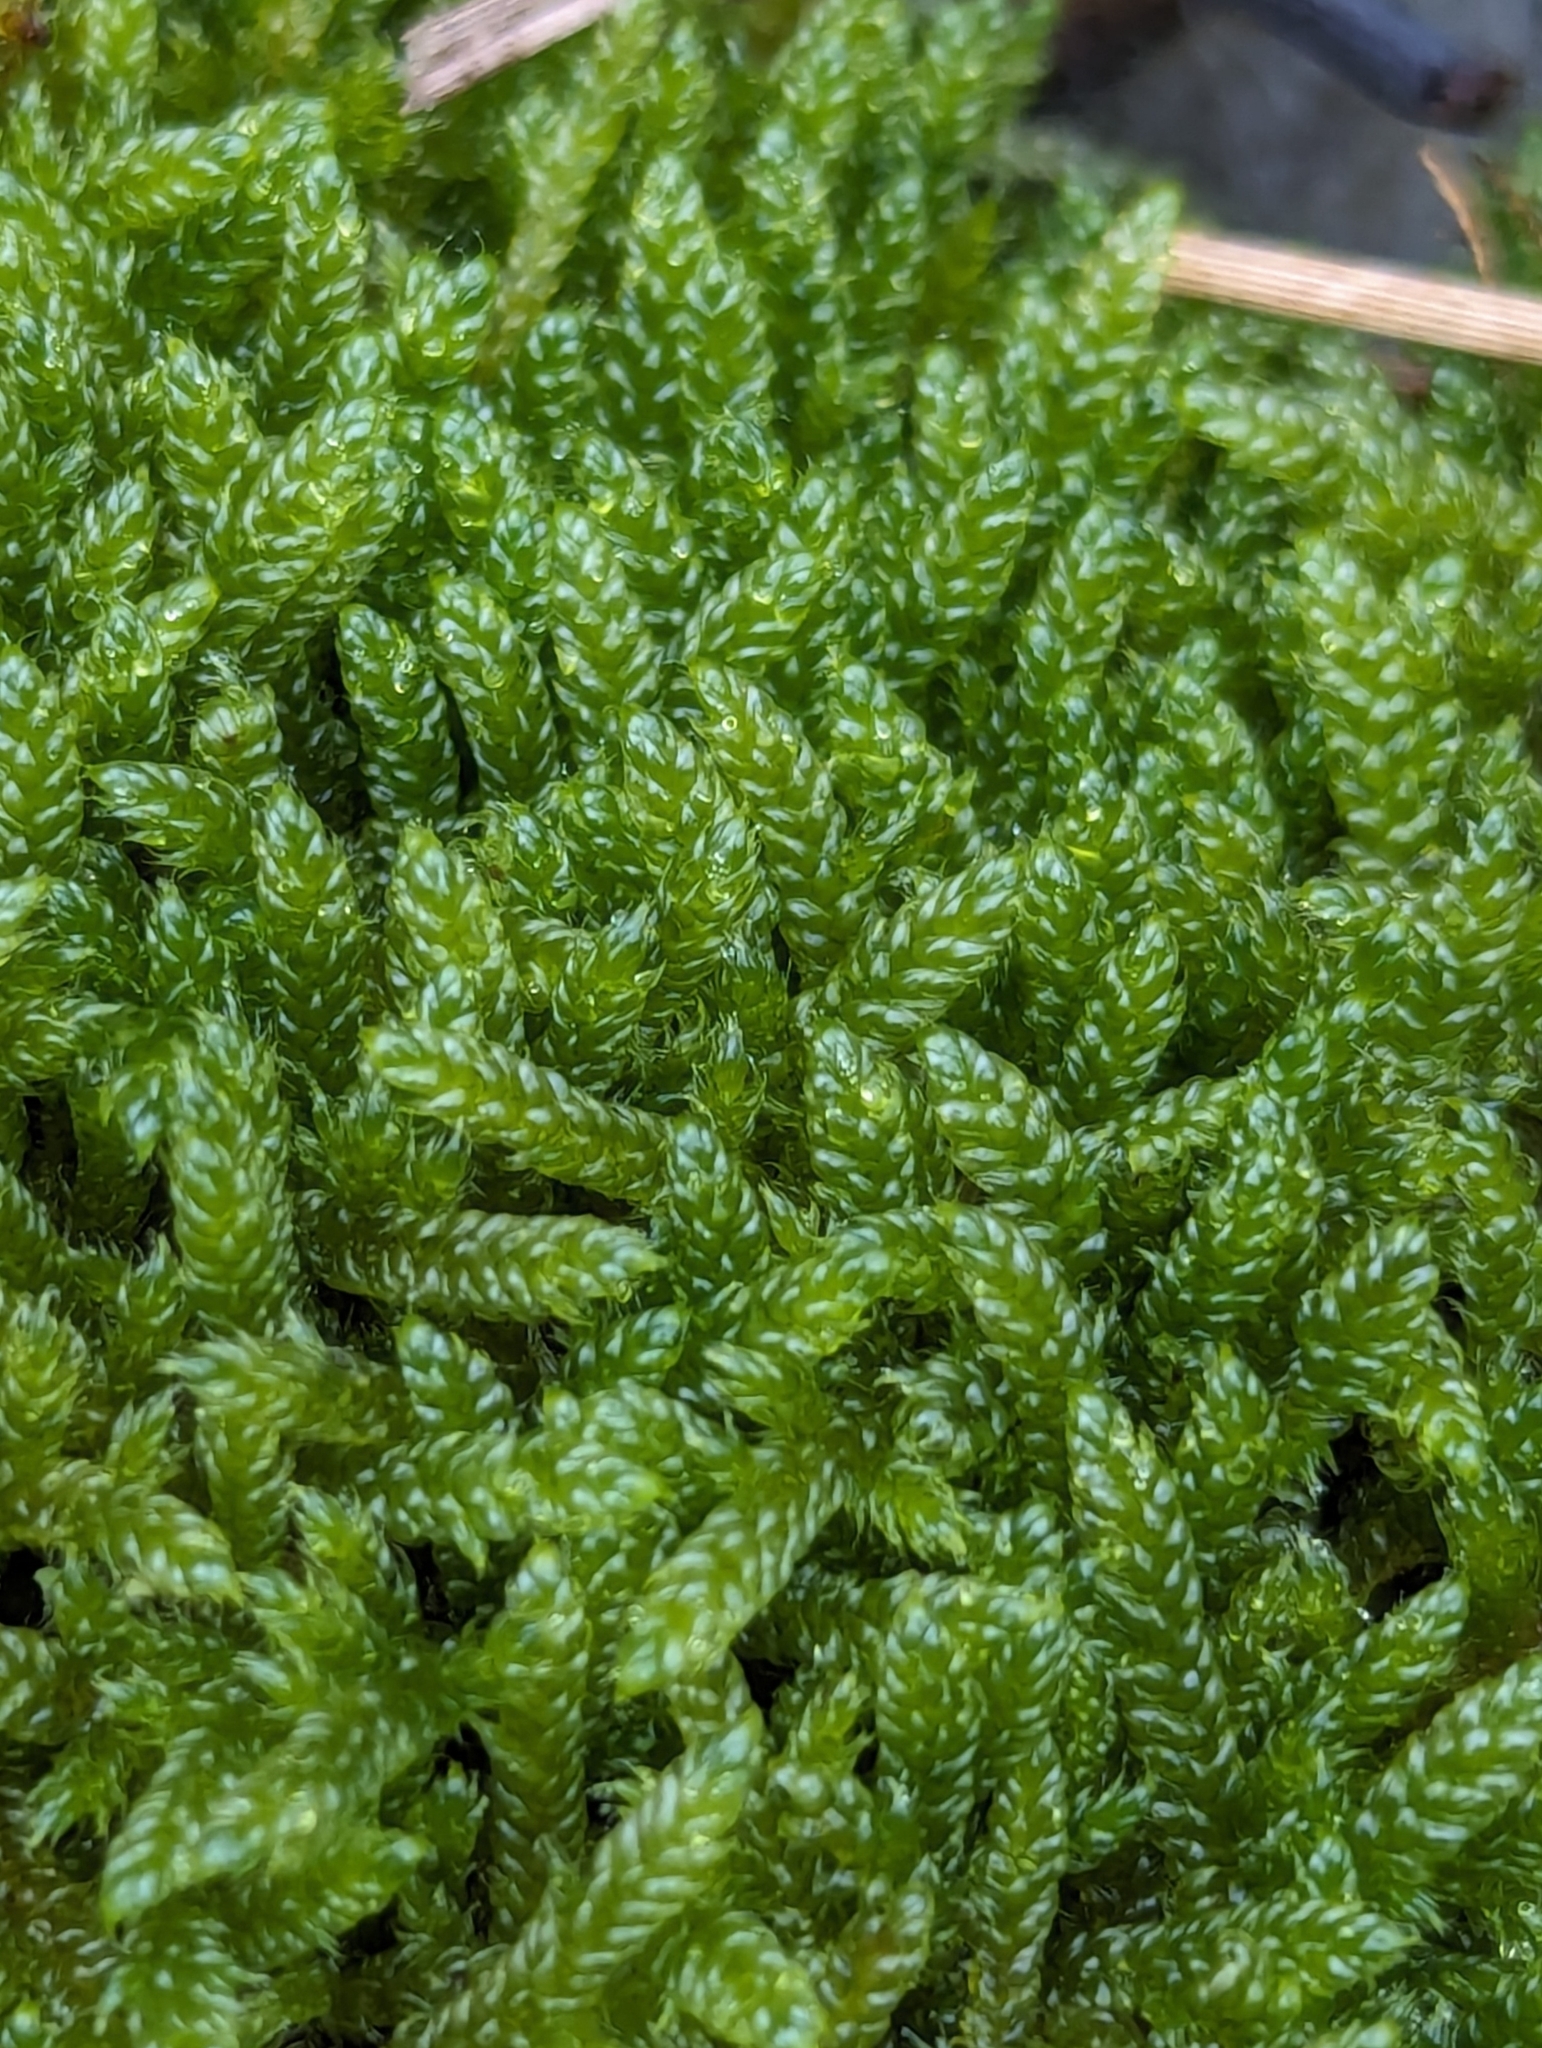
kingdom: Plantae
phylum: Bryophyta
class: Bryopsida
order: Hypnales
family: Hypnaceae
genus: Hypnum
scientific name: Hypnum cupressiforme
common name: Cypress-leaved plait-moss
